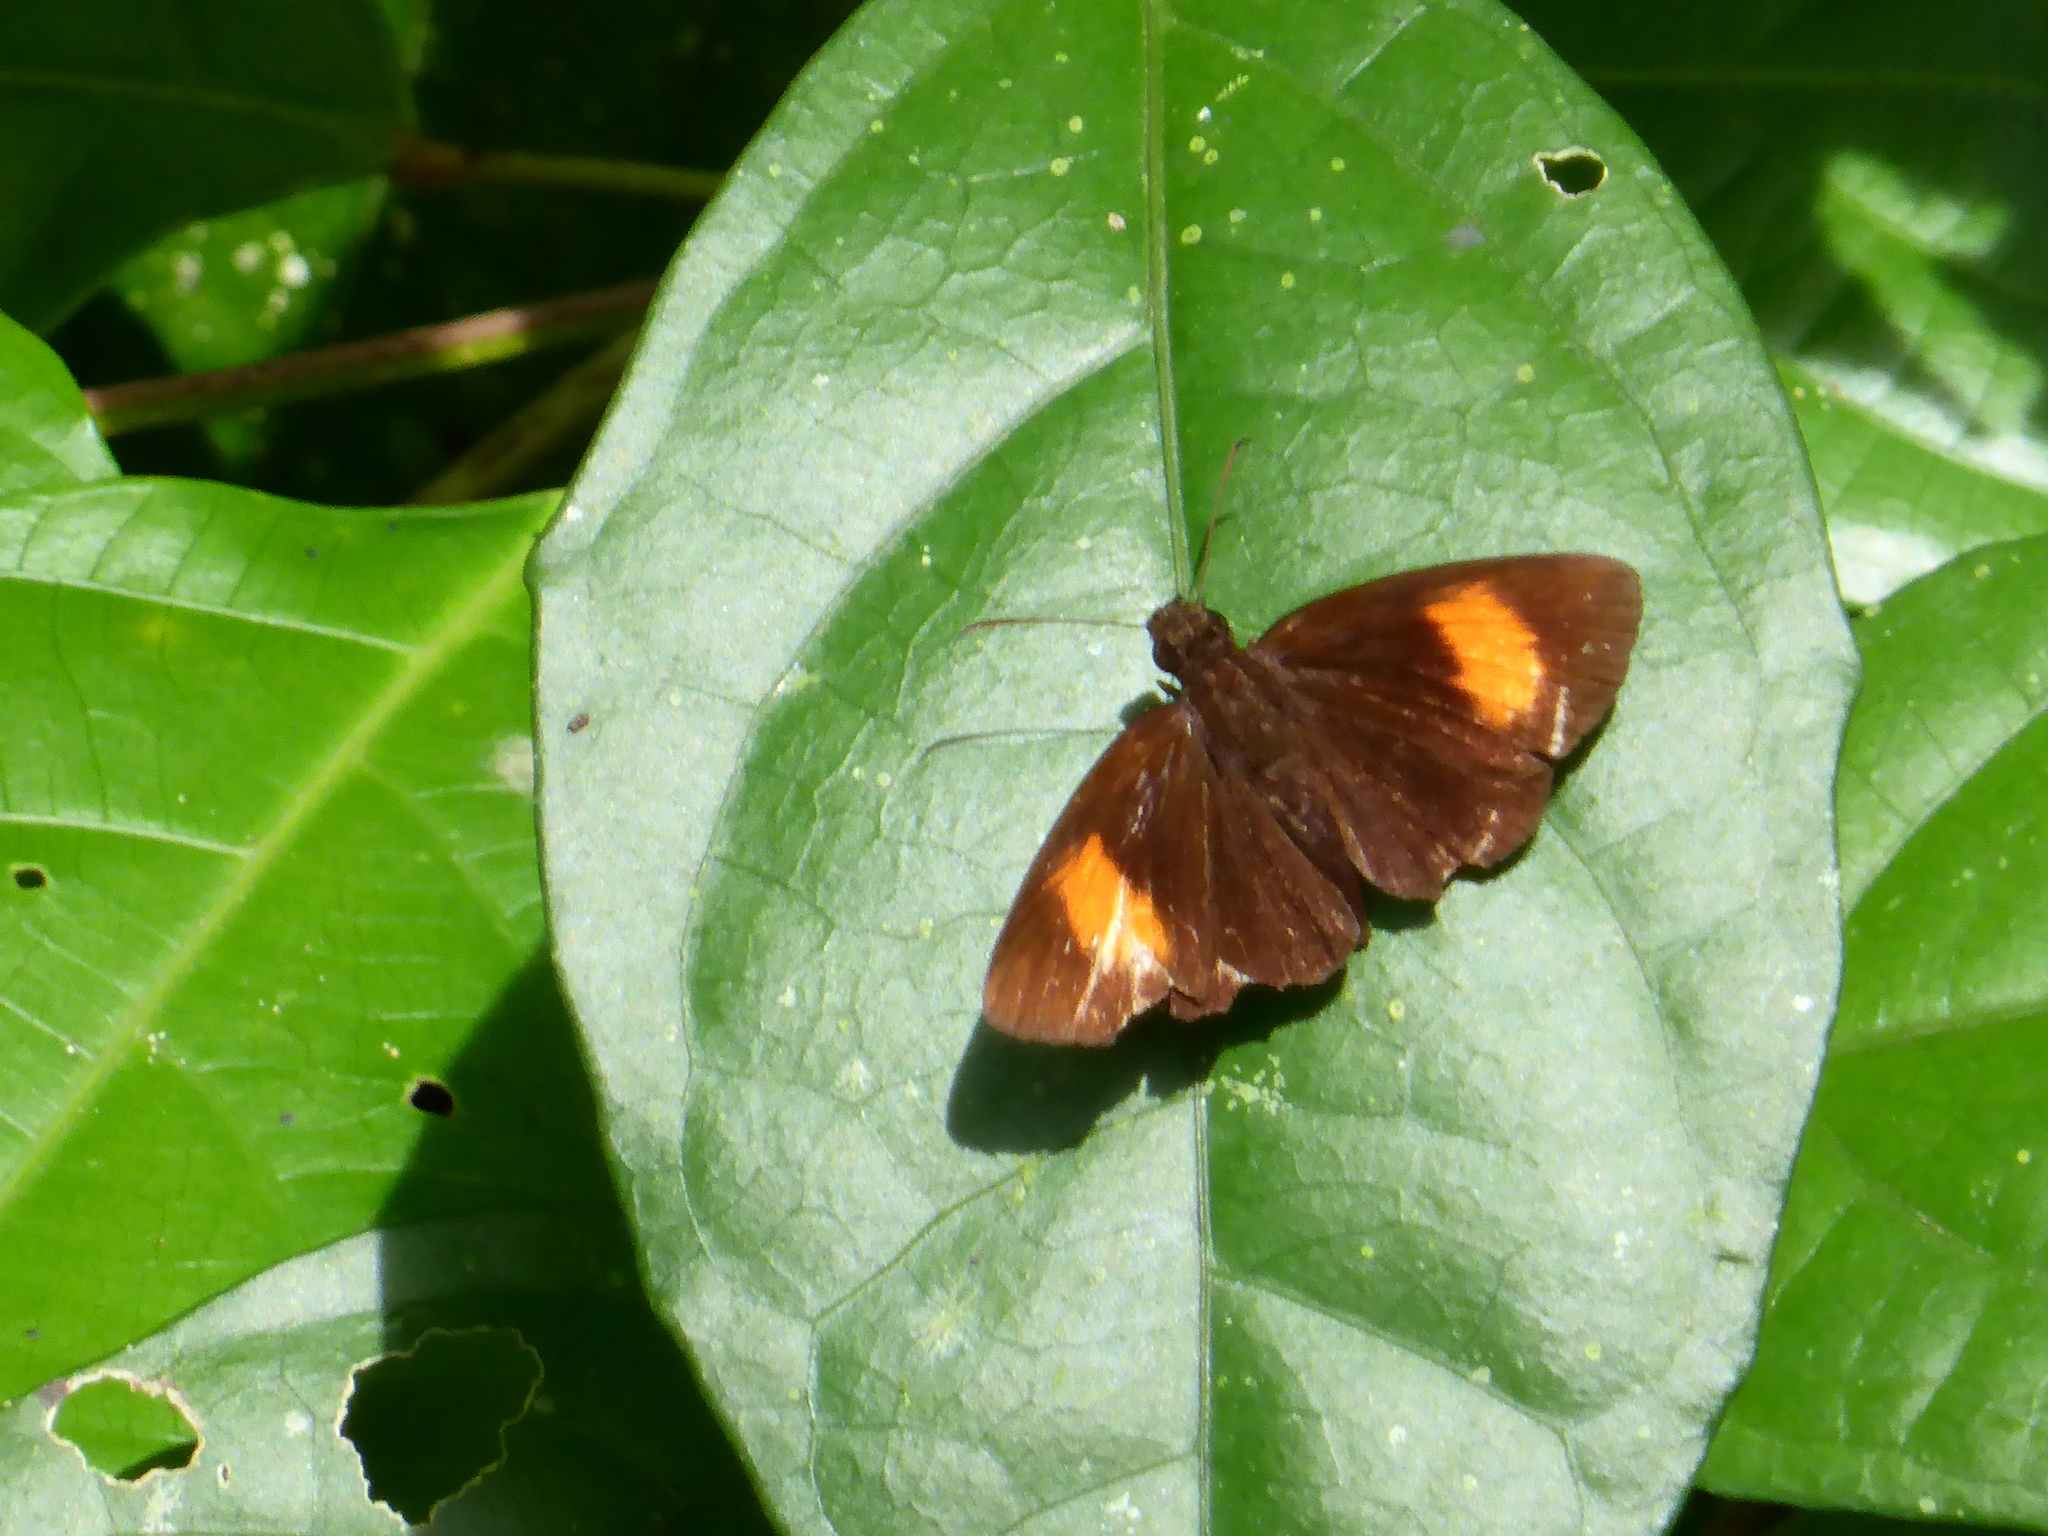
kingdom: Animalia
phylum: Arthropoda
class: Insecta
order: Lepidoptera
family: Hesperiidae
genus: Koruthaialos
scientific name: Koruthaialos rubecula
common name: Narrow-banded velvet bob
